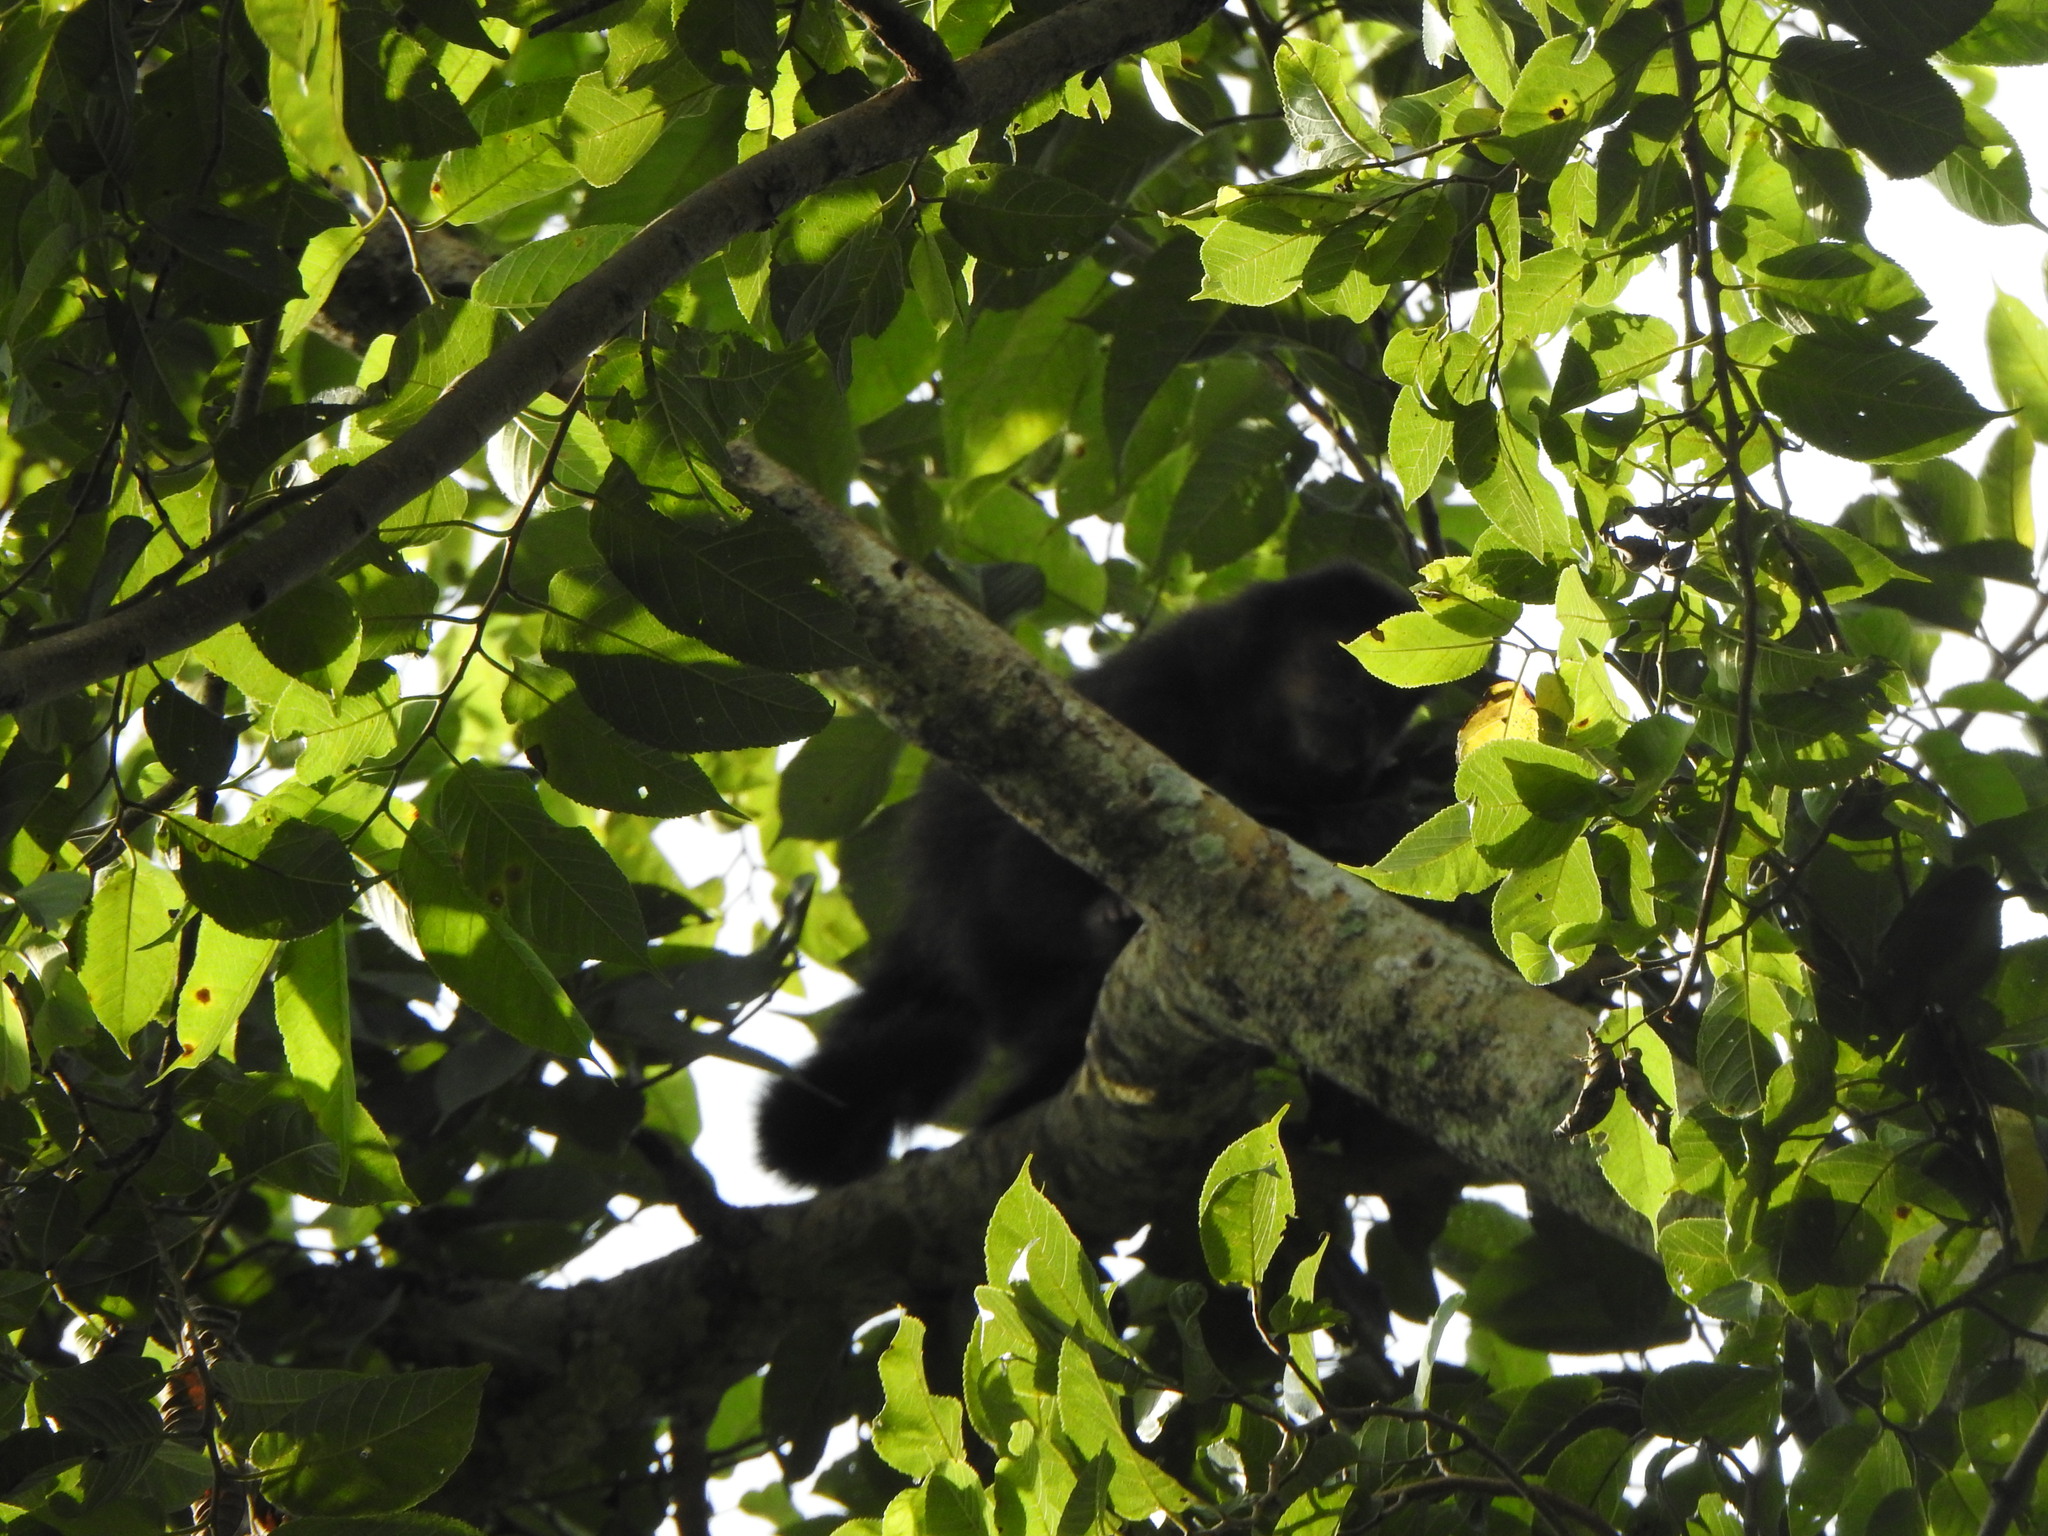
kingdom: Animalia
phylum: Chordata
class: Mammalia
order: Primates
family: Cebidae
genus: Sapajus
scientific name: Sapajus nigritus
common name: Black capuchin
